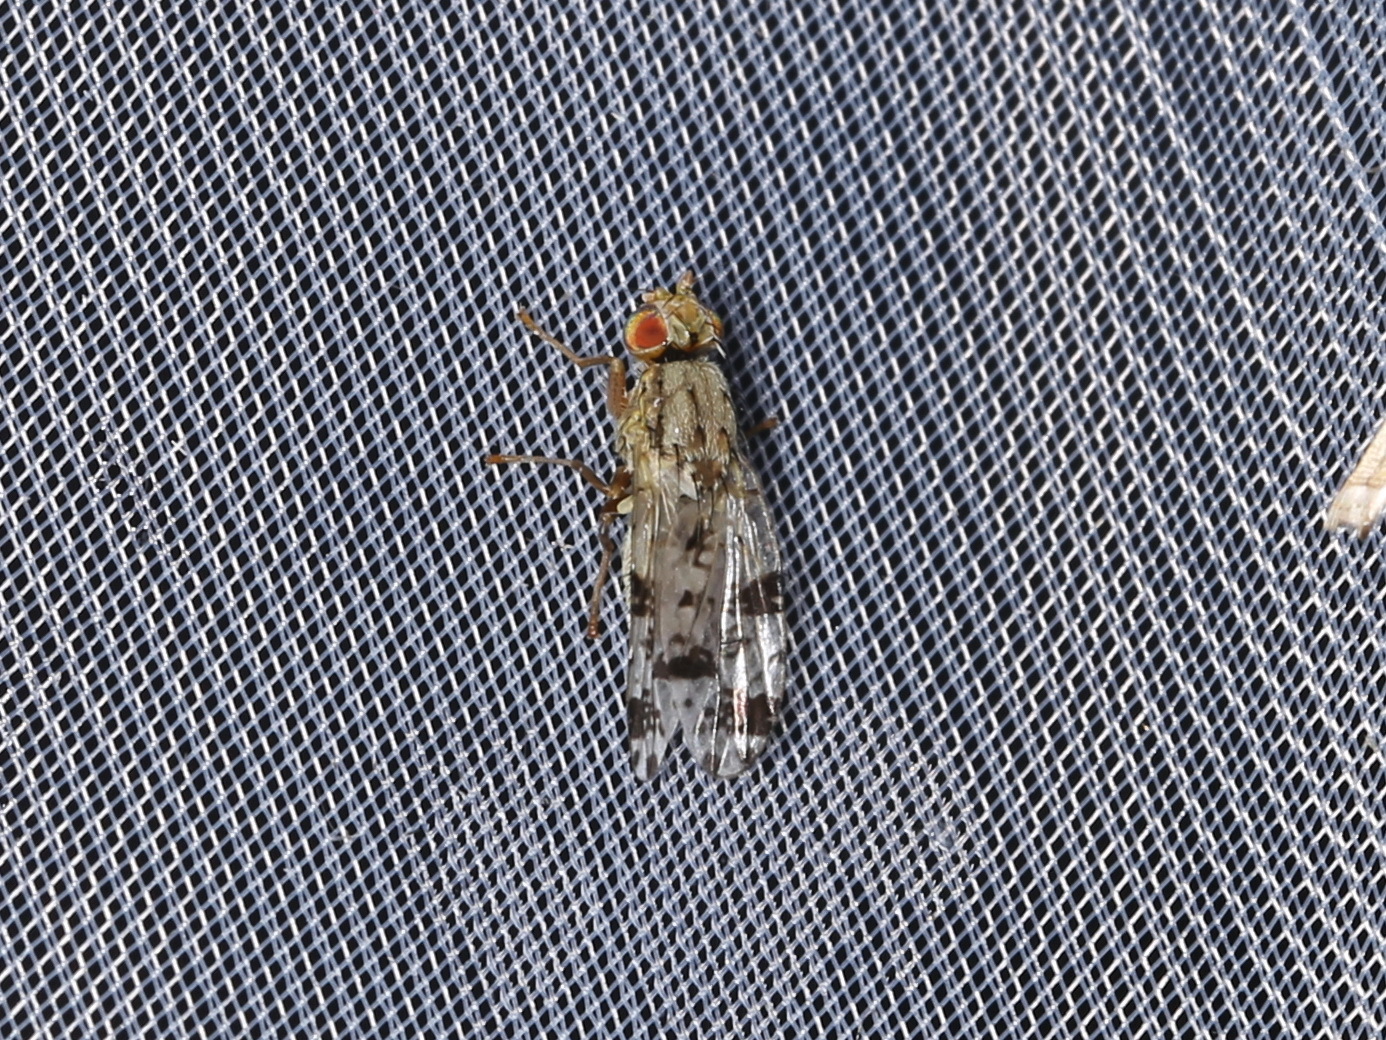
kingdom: Animalia
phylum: Arthropoda
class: Insecta
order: Diptera
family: Tephritidae
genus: Tephritis
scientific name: Tephritis hyoscyami
